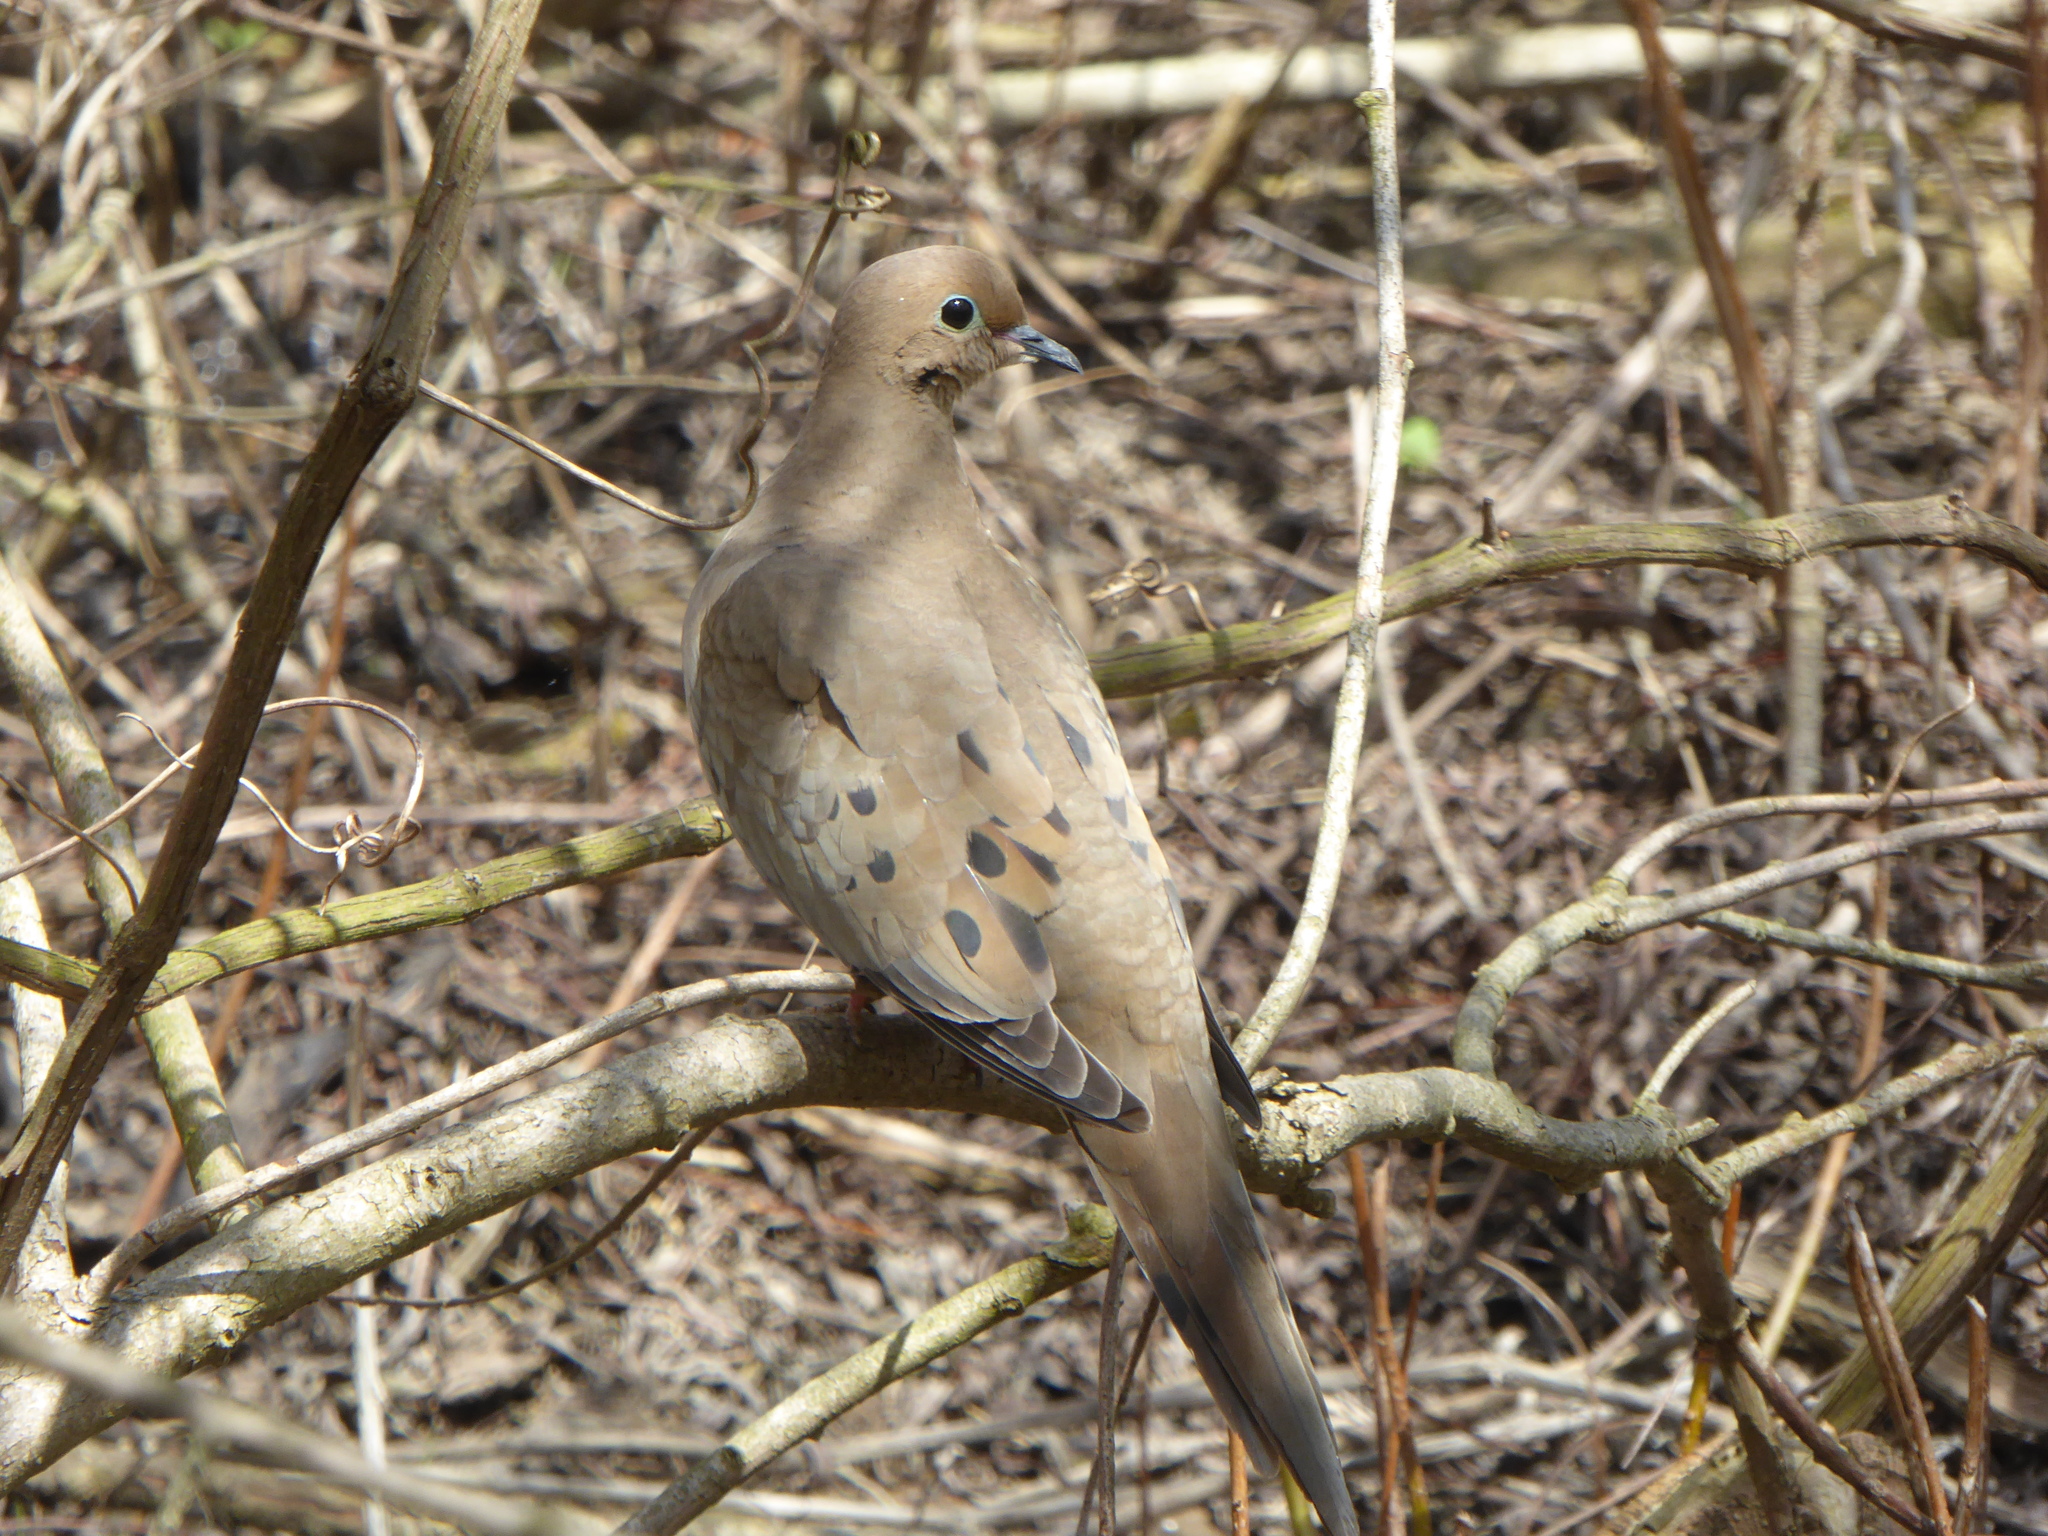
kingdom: Animalia
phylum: Chordata
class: Aves
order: Columbiformes
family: Columbidae
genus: Zenaida
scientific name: Zenaida macroura
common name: Mourning dove
